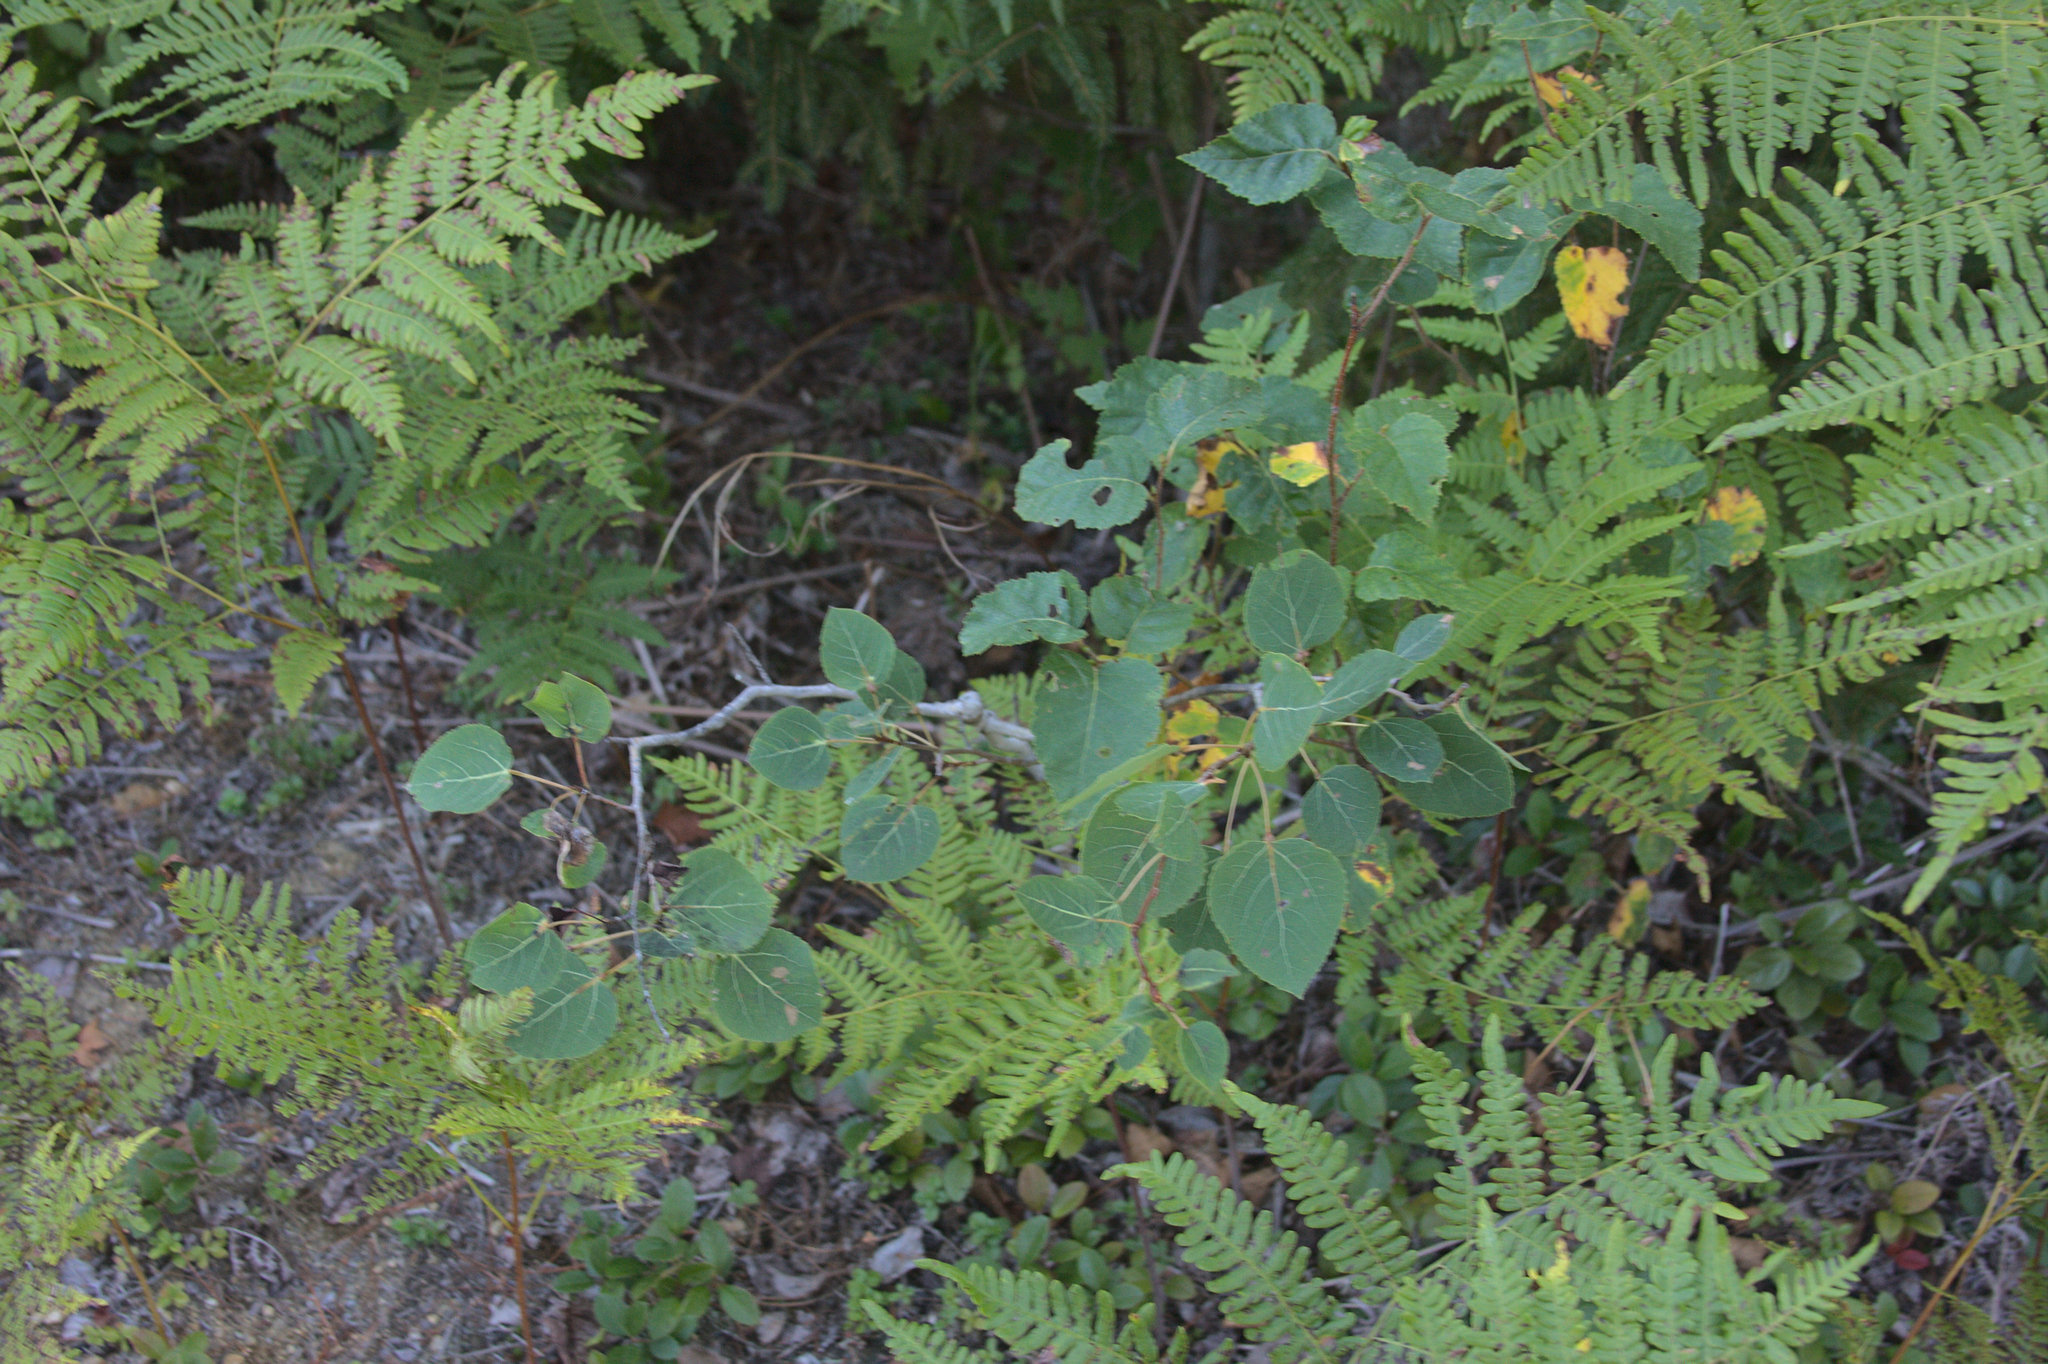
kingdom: Plantae
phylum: Tracheophyta
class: Magnoliopsida
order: Malpighiales
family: Salicaceae
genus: Populus
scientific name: Populus tremuloides
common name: Quaking aspen
